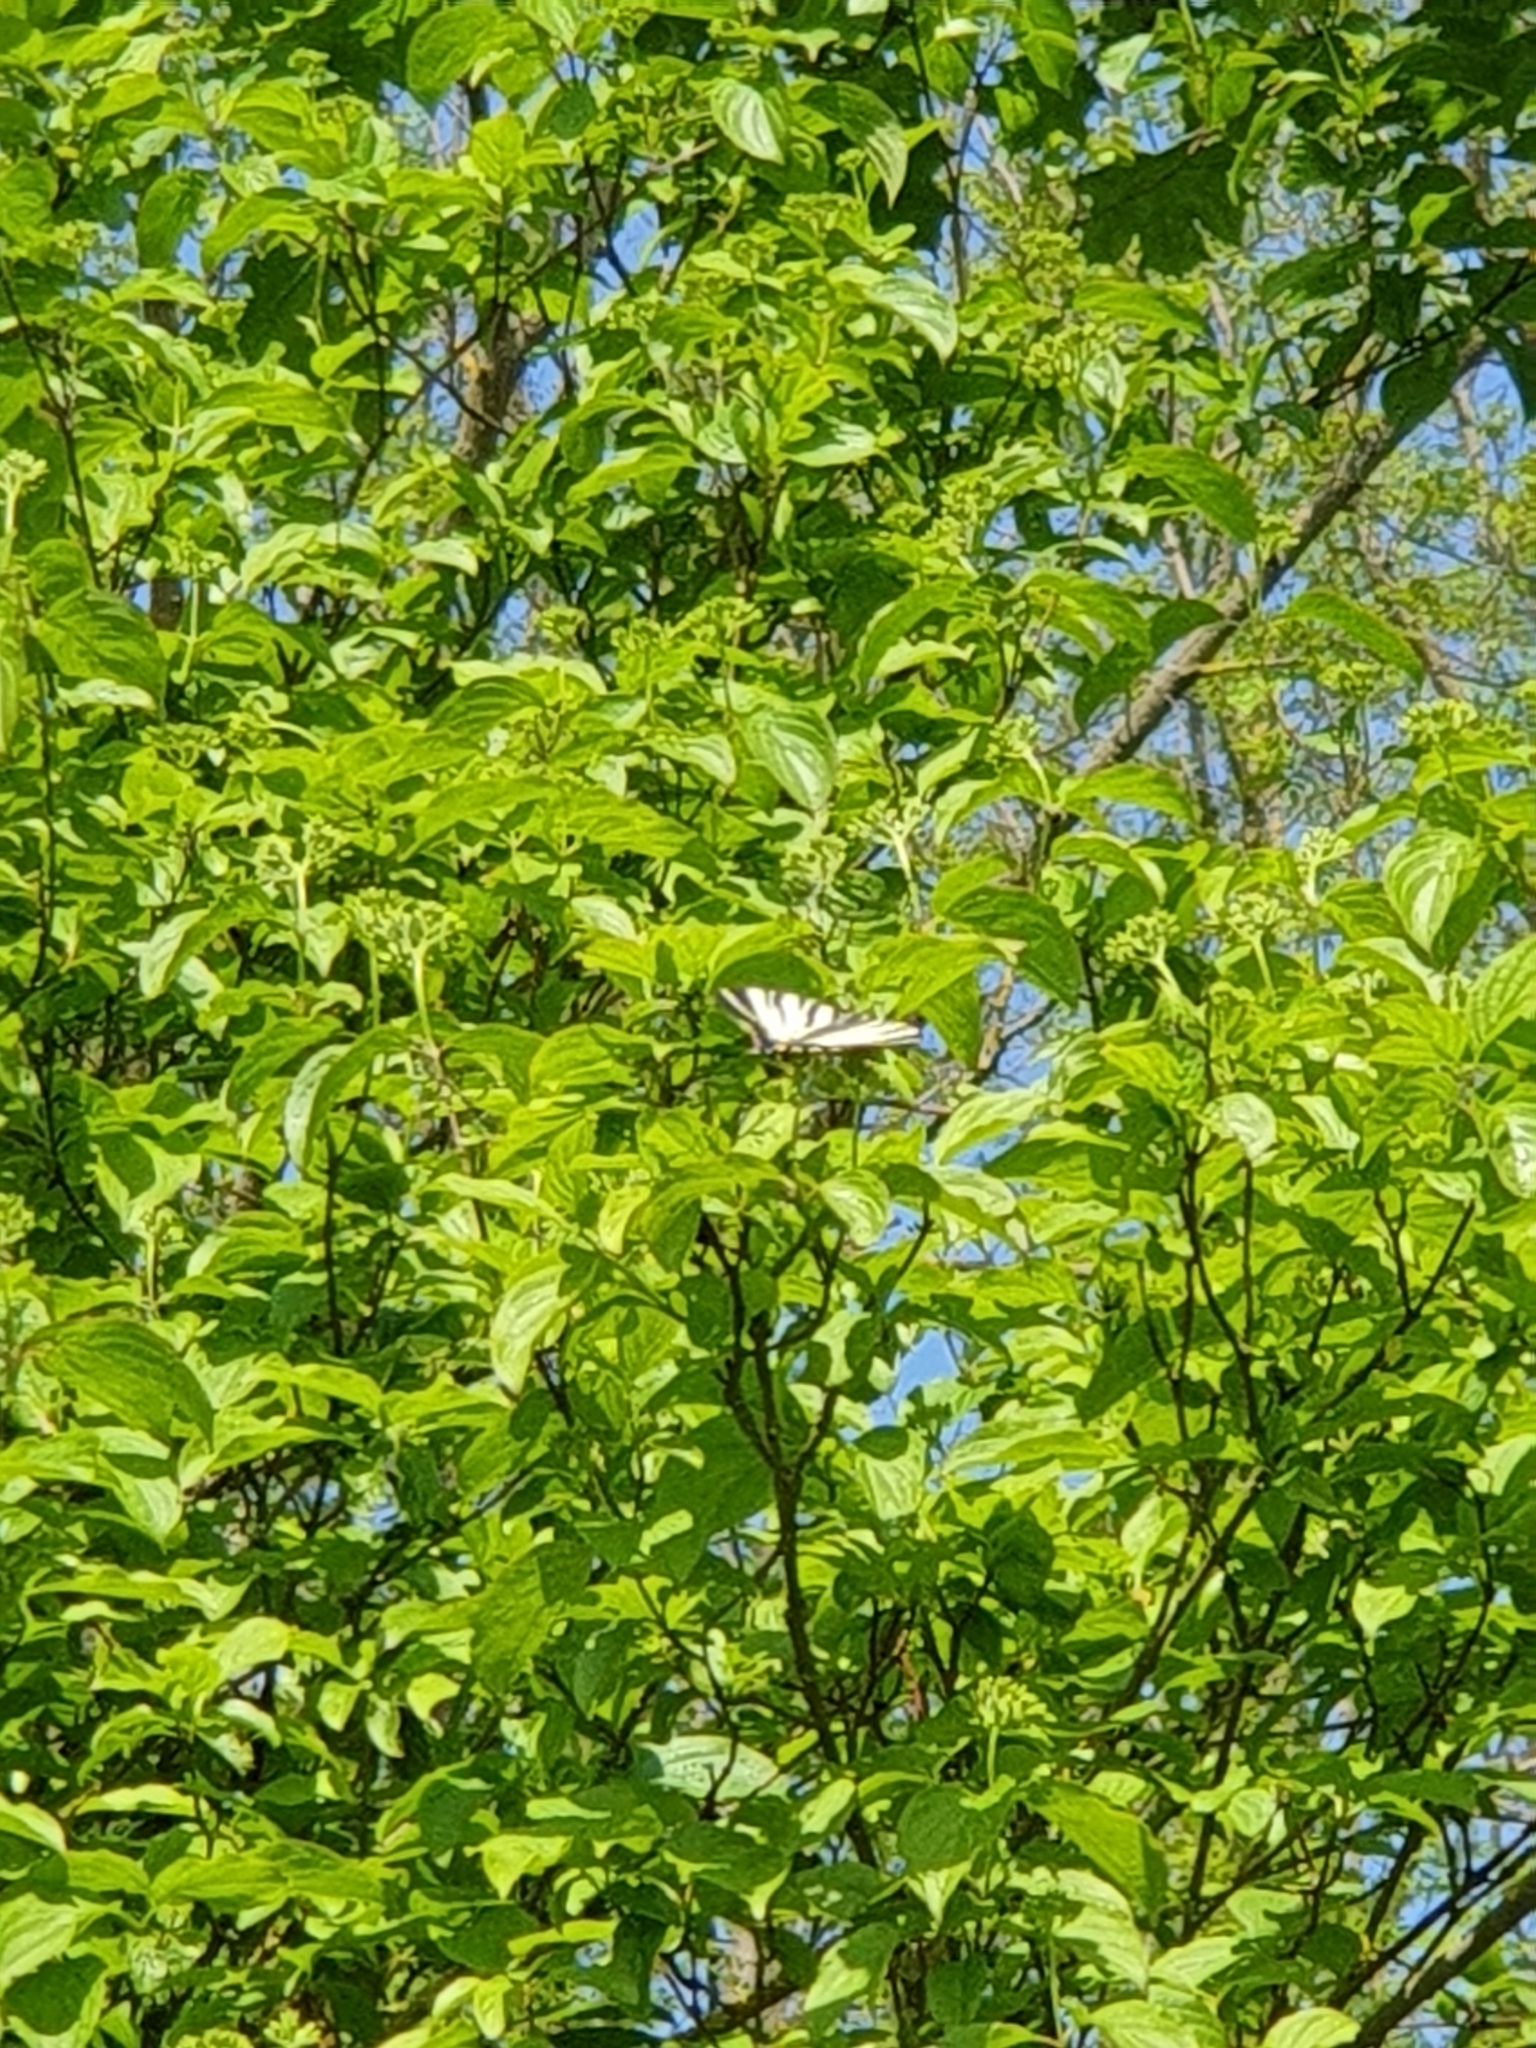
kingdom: Animalia
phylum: Arthropoda
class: Insecta
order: Lepidoptera
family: Papilionidae
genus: Iphiclides
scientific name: Iphiclides podalirius
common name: Scarce swallowtail
